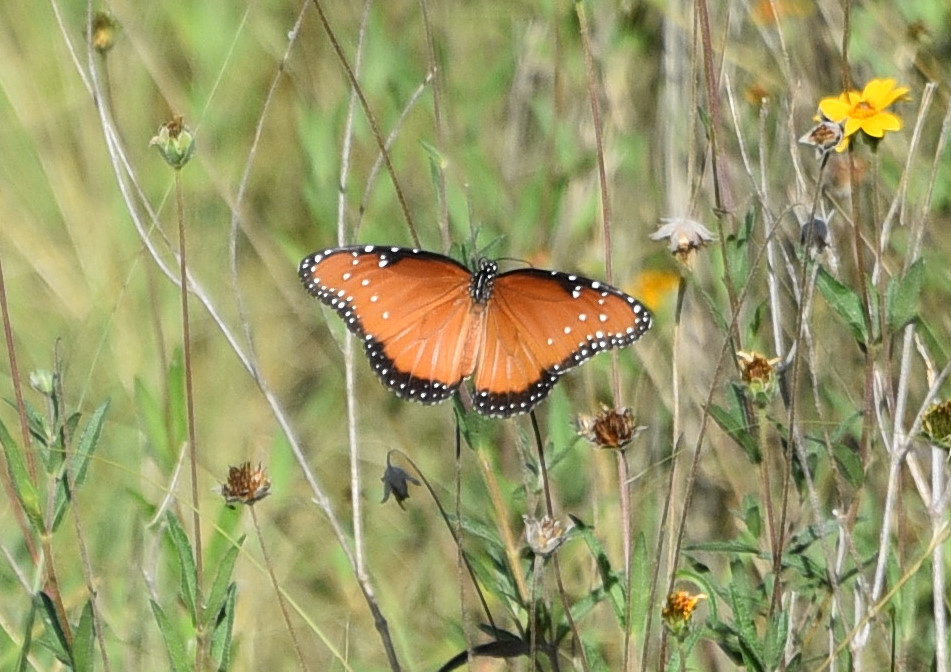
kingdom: Animalia
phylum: Arthropoda
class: Insecta
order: Lepidoptera
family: Nymphalidae
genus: Danaus
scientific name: Danaus gilippus
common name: Queen
